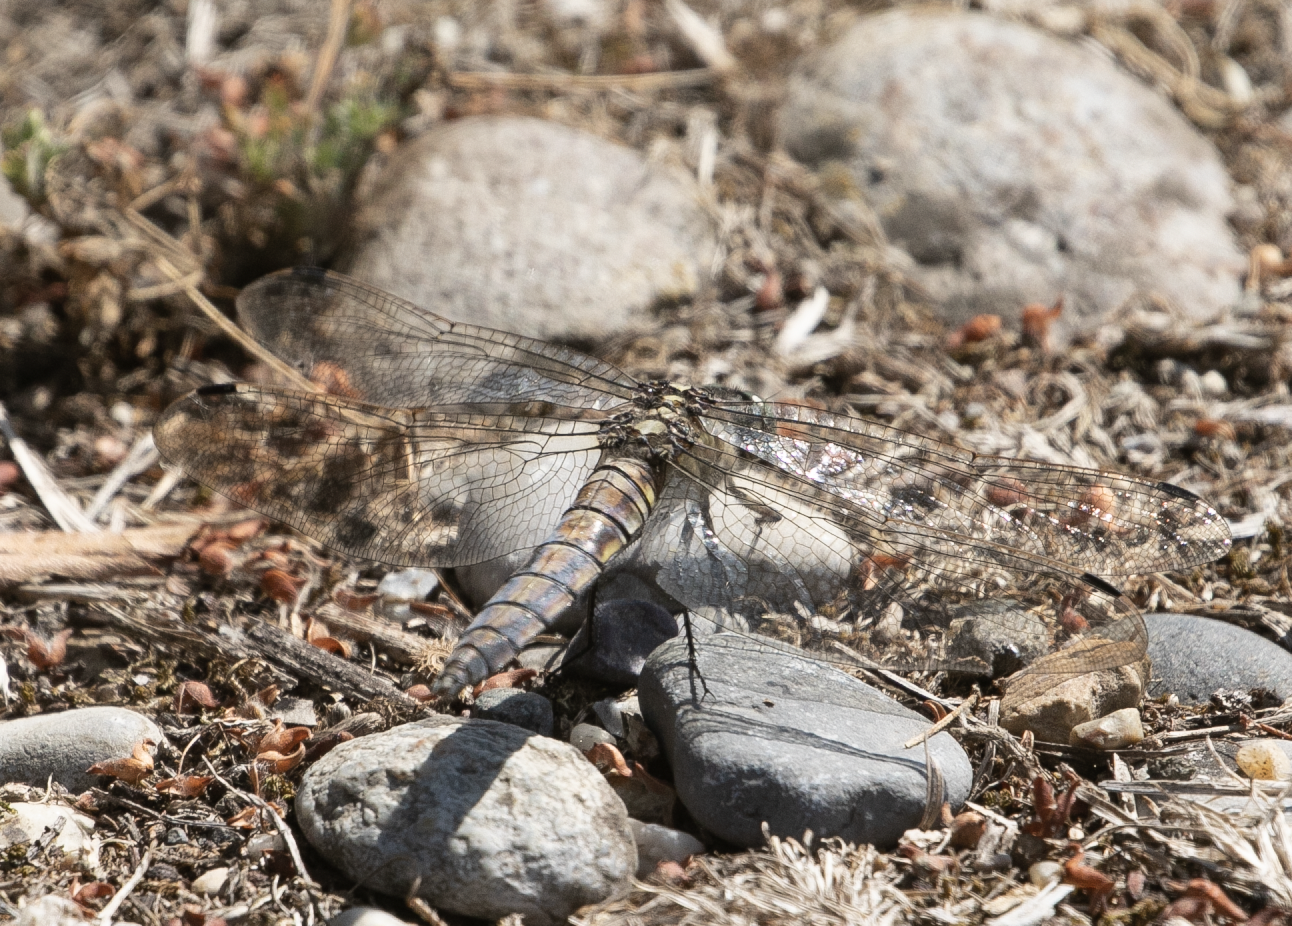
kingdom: Animalia
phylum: Arthropoda
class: Insecta
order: Odonata
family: Libellulidae
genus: Orthetrum
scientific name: Orthetrum cancellatum
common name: Black-tailed skimmer
